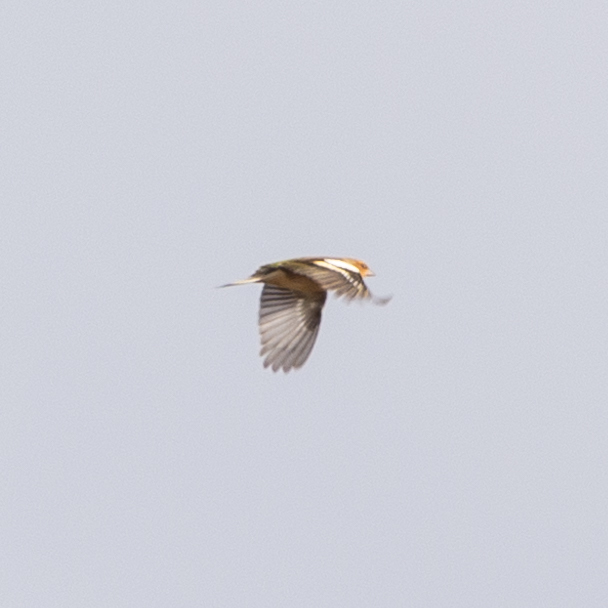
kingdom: Animalia
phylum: Chordata
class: Aves
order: Passeriformes
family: Fringillidae
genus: Fringilla
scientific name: Fringilla coelebs
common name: Common chaffinch
